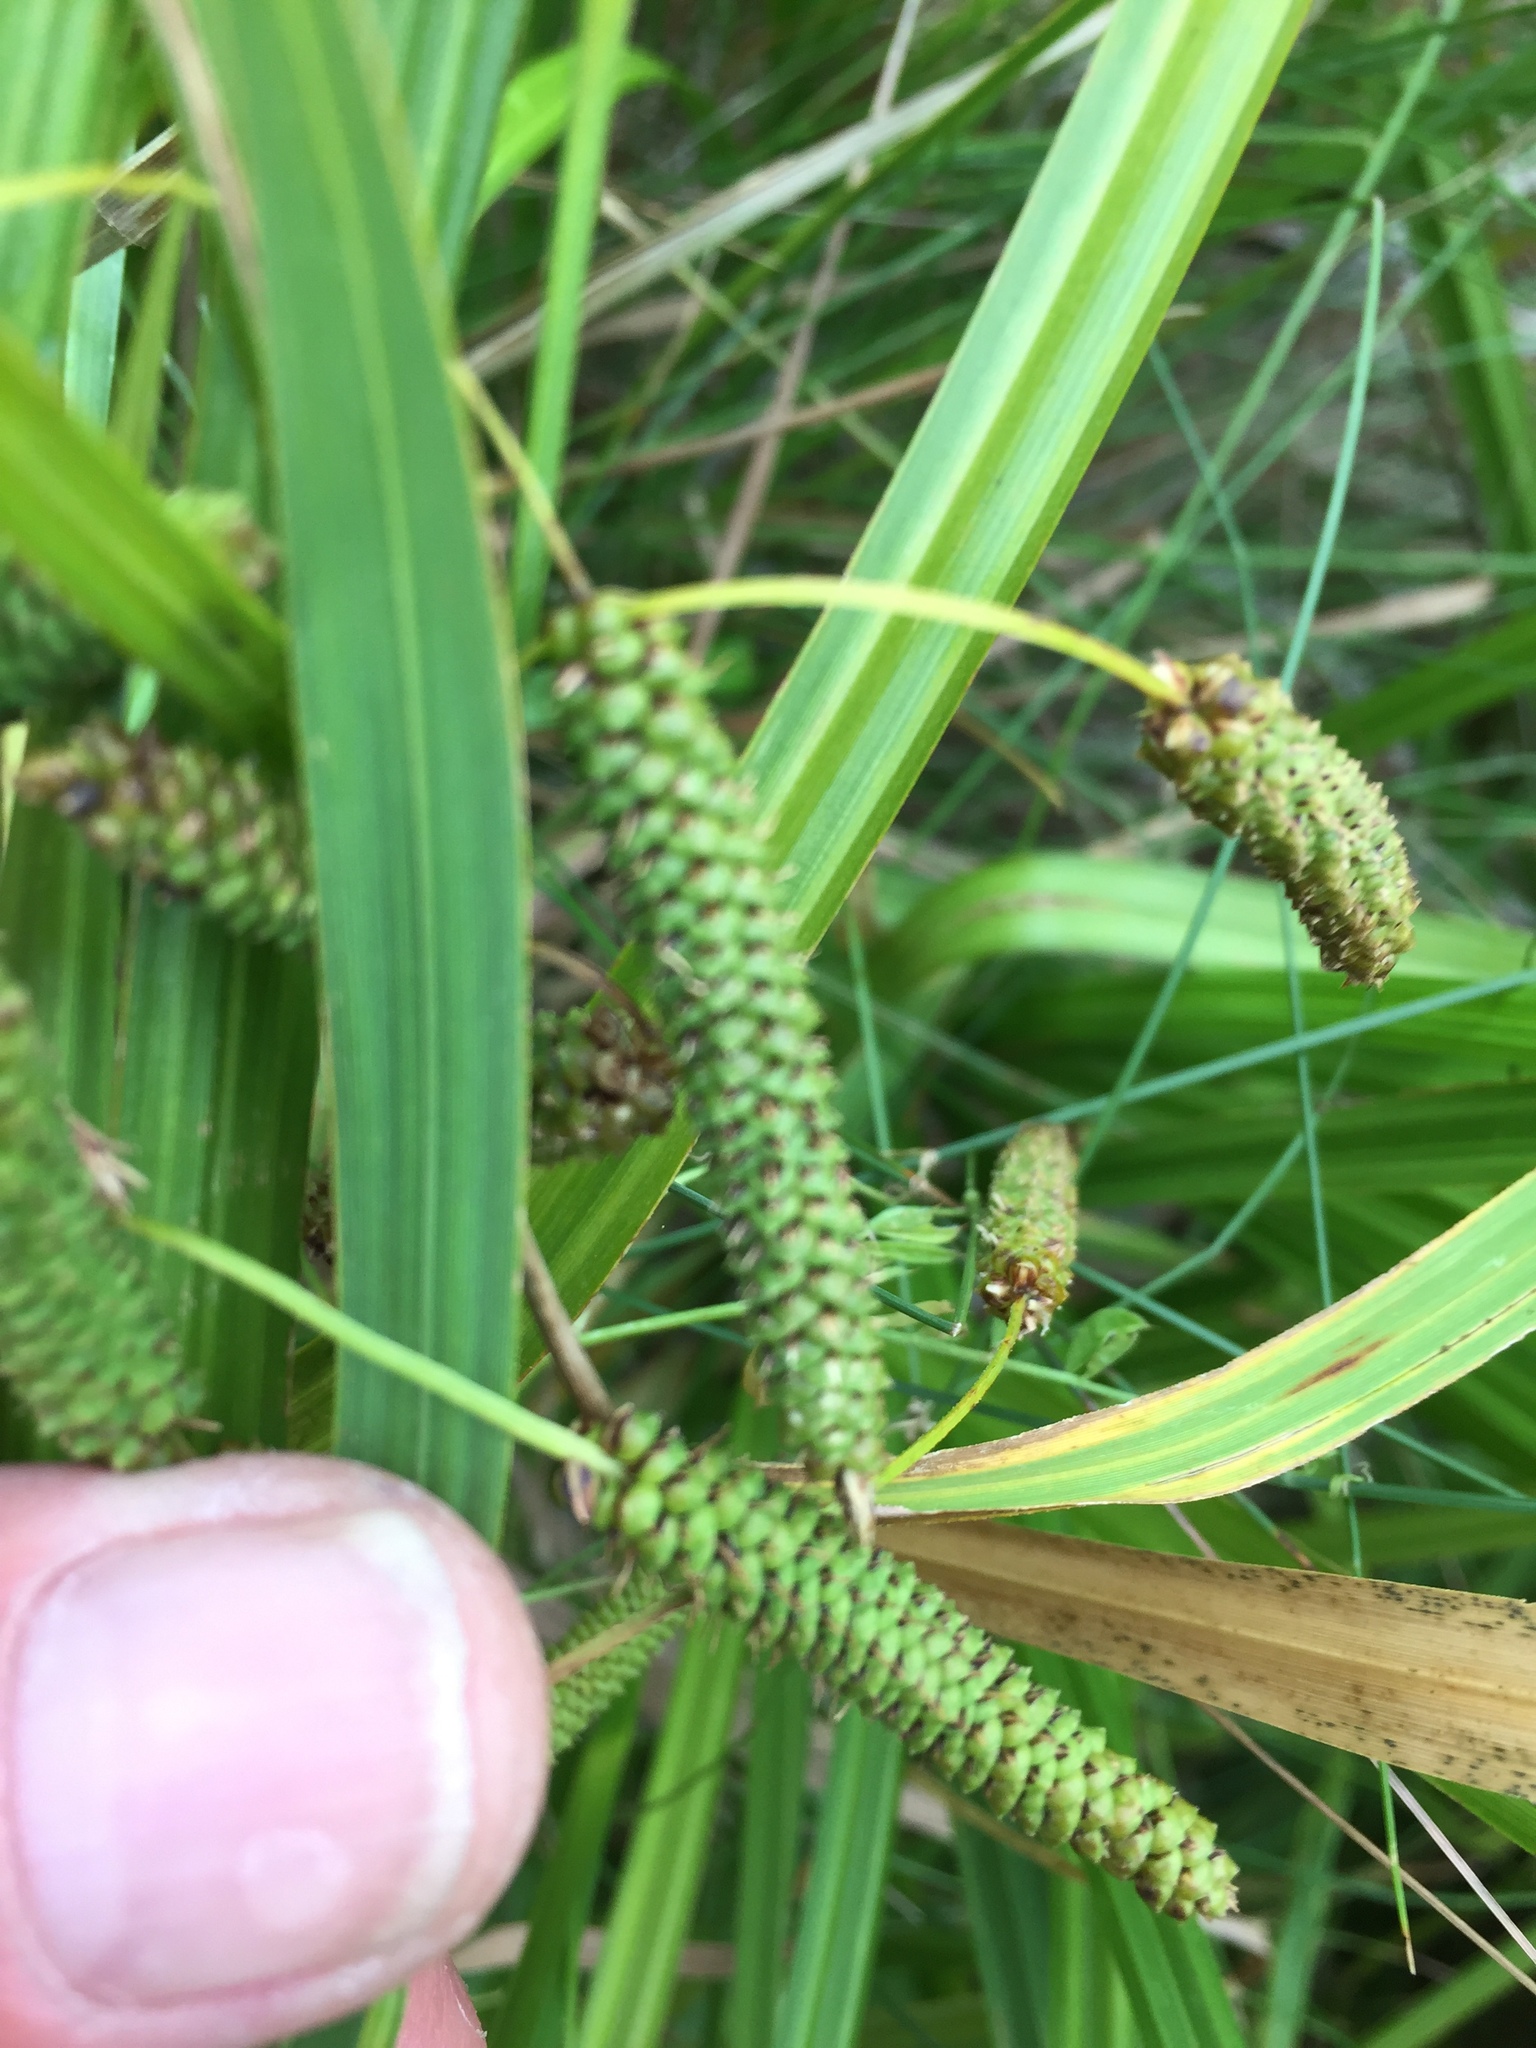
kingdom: Plantae
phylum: Tracheophyta
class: Liliopsida
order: Poales
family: Cyperaceae
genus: Carex
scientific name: Carex geminata
